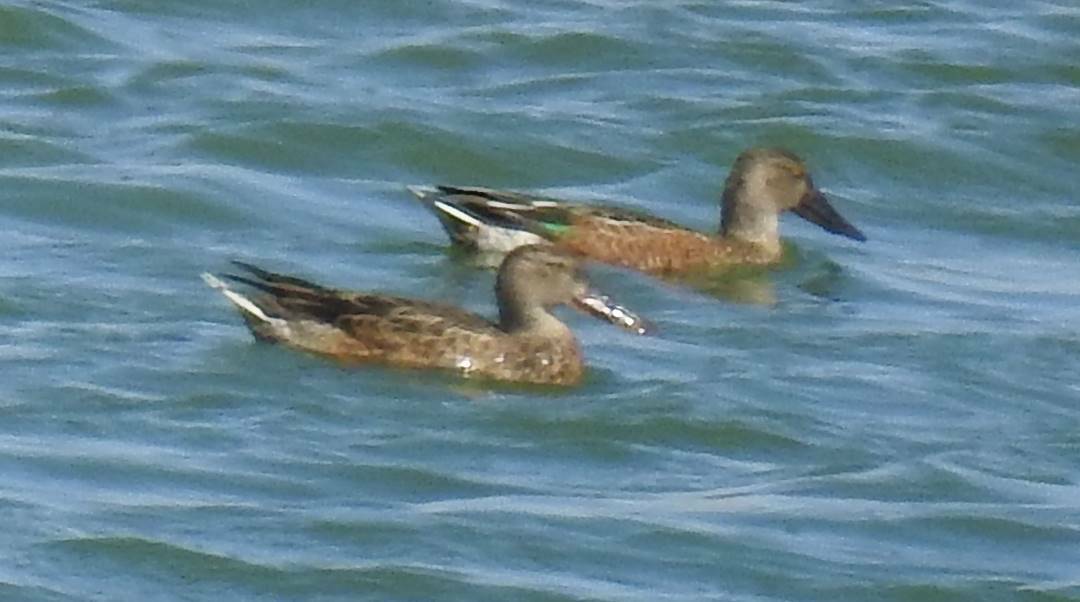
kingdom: Animalia
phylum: Chordata
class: Aves
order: Anseriformes
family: Anatidae
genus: Spatula
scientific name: Spatula clypeata
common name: Northern shoveler
